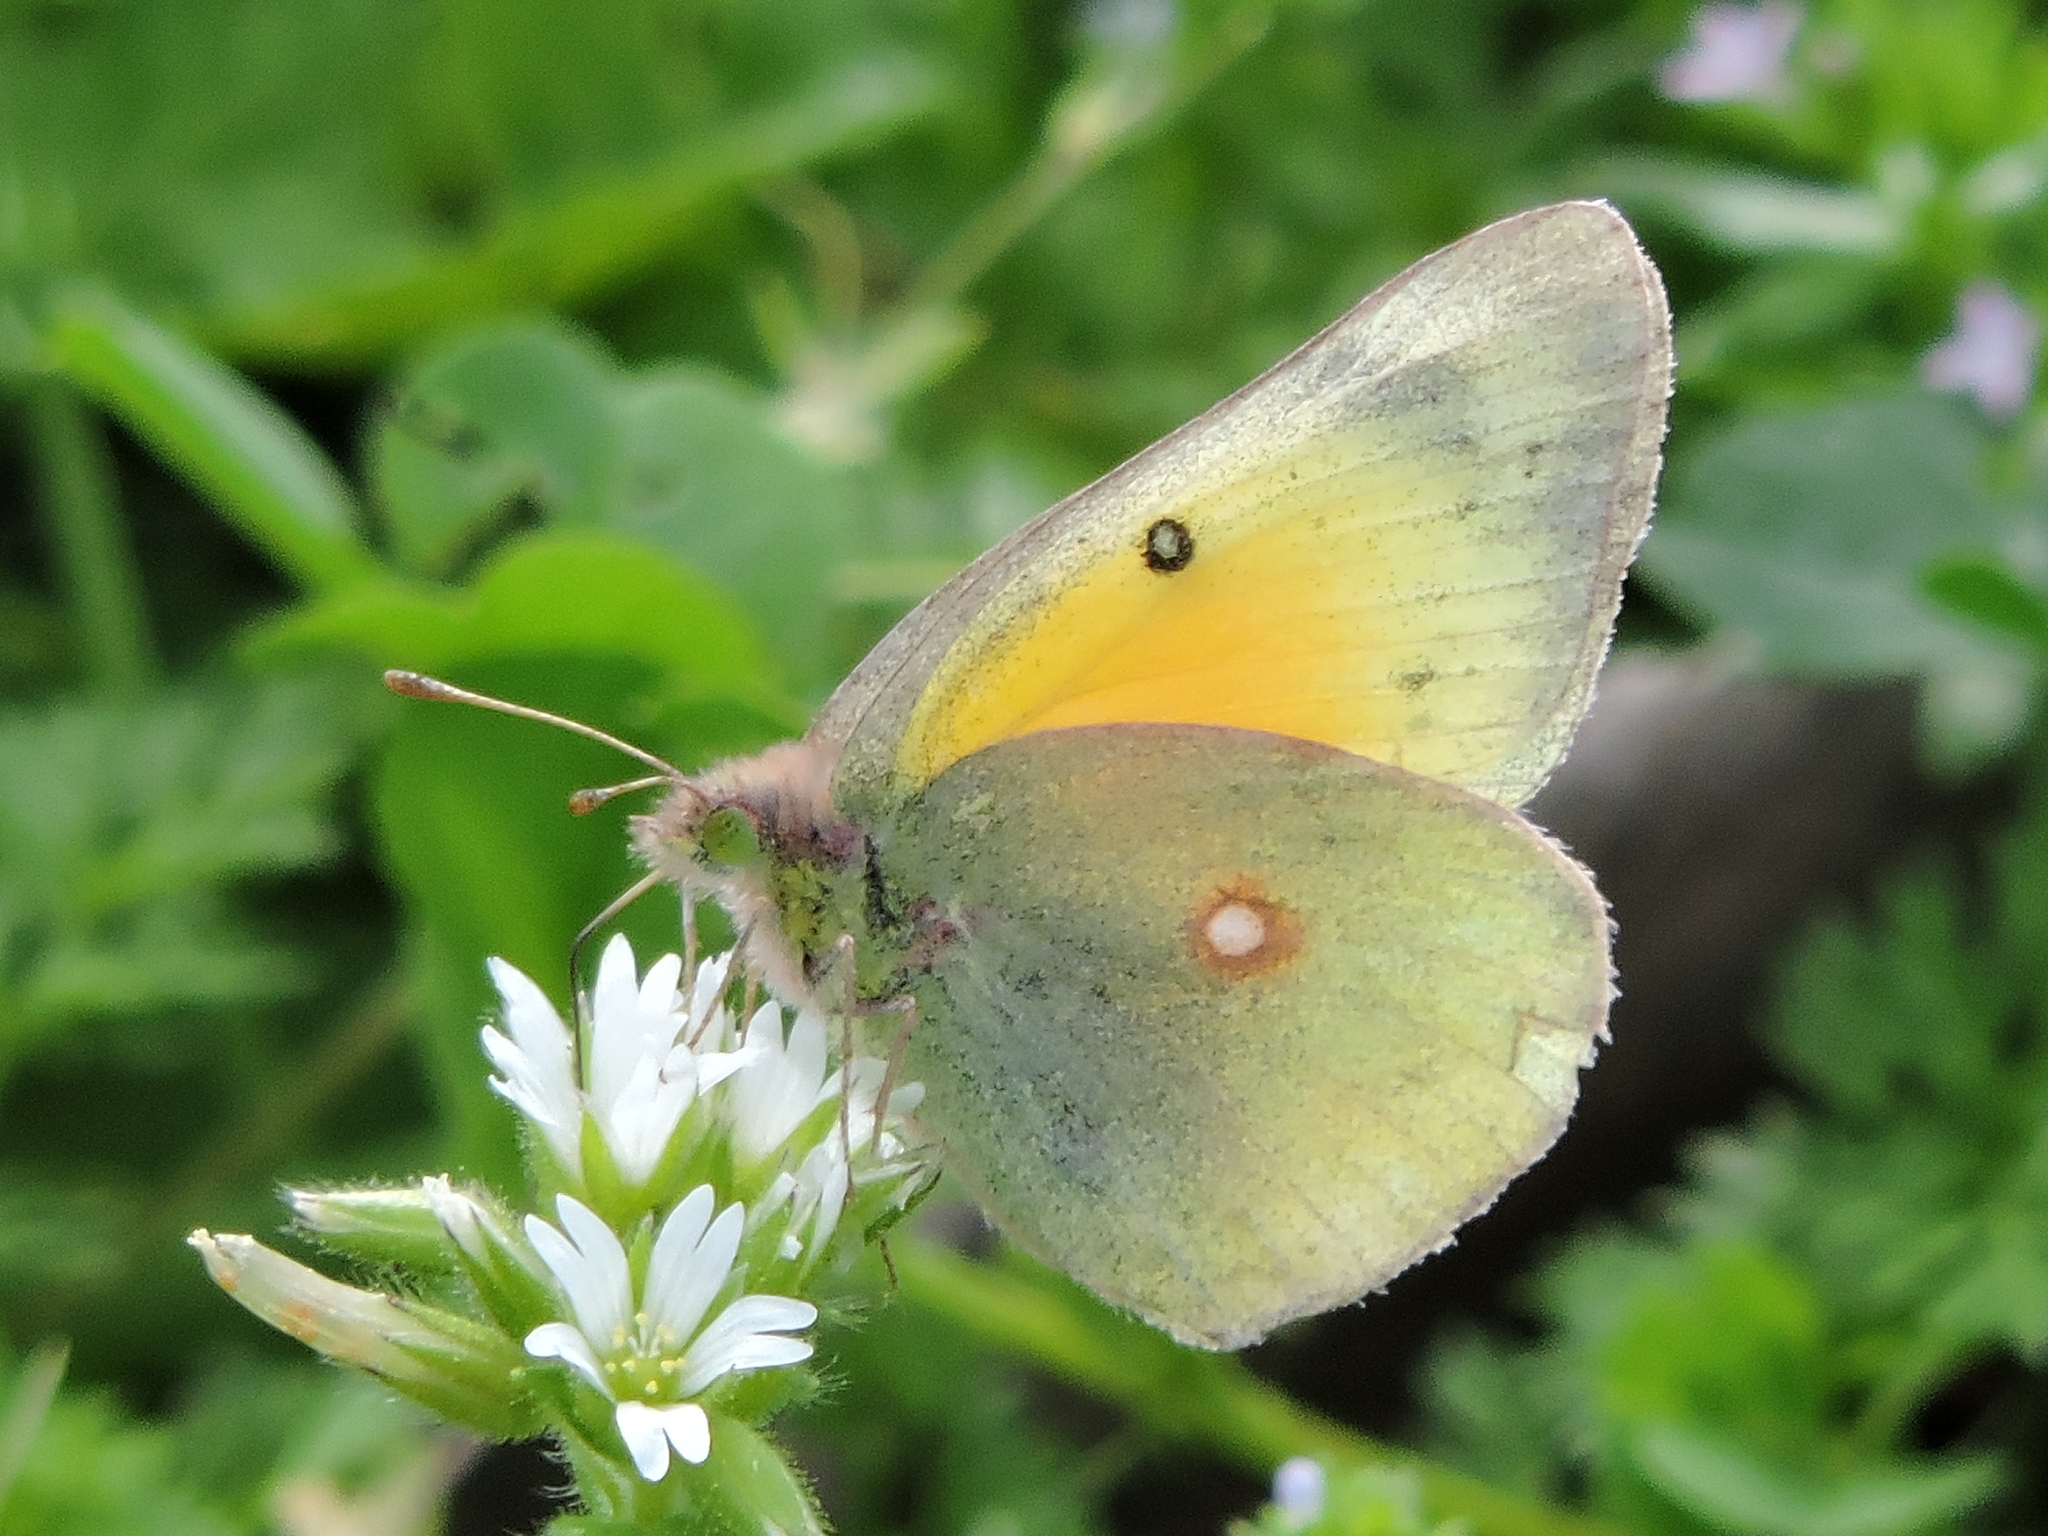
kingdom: Animalia
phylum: Arthropoda
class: Insecta
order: Lepidoptera
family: Pieridae
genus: Colias
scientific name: Colias eurytheme
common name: Alfalfa butterfly
